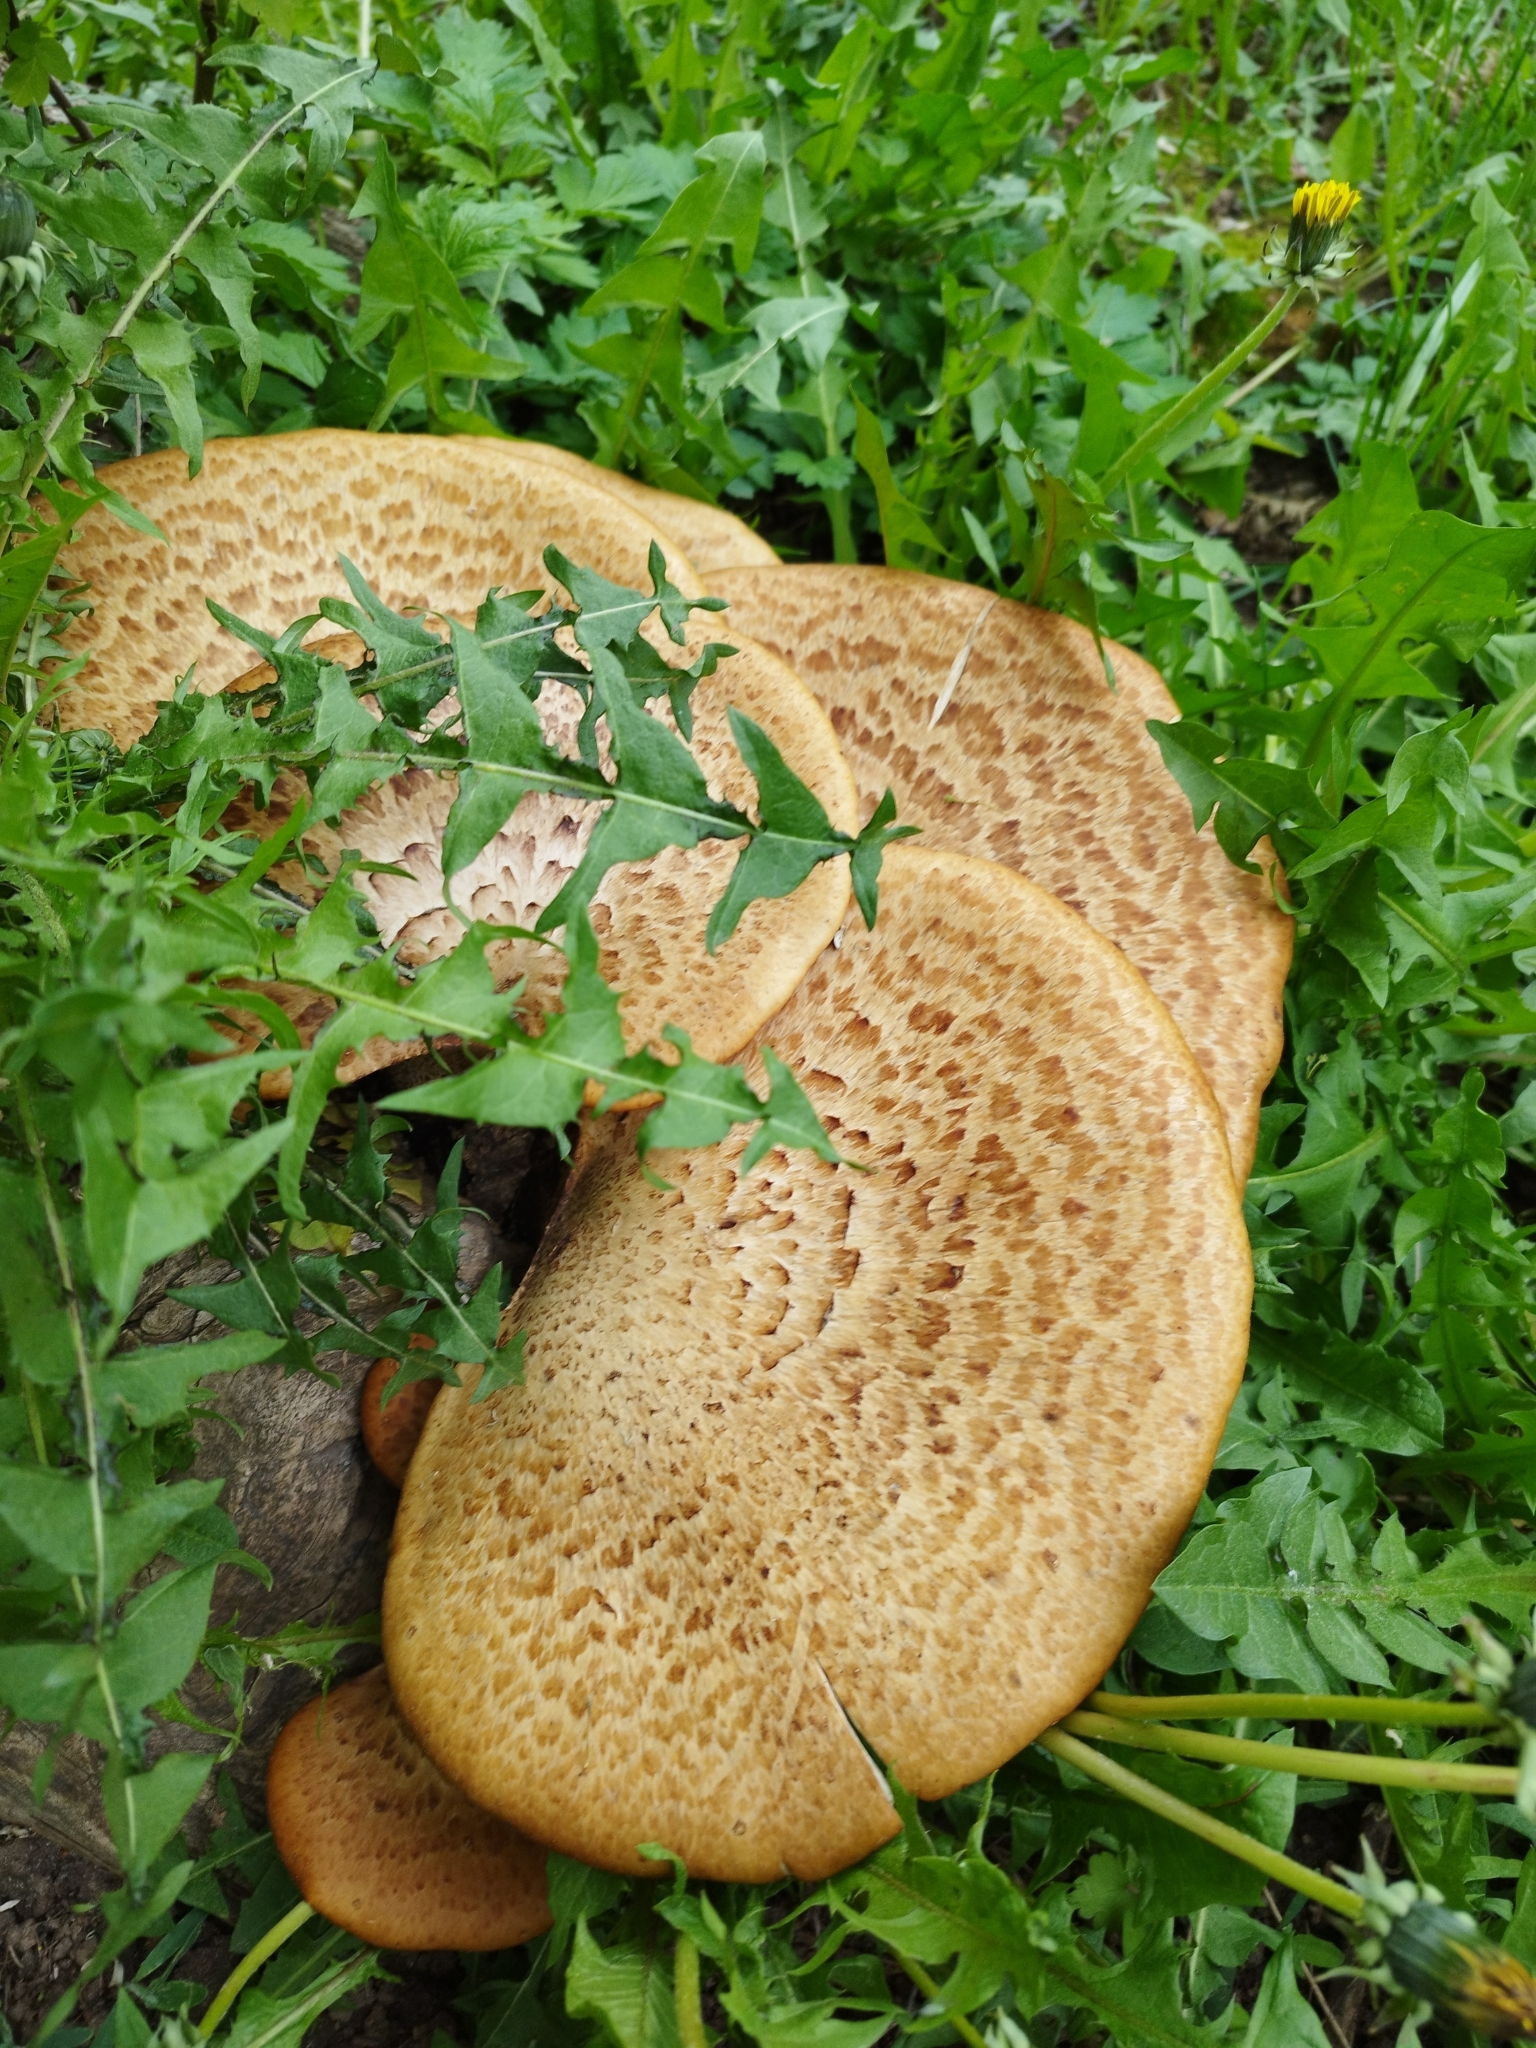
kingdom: Fungi
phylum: Basidiomycota
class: Agaricomycetes
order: Polyporales
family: Polyporaceae
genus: Cerioporus
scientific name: Cerioporus squamosus
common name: Dryad's saddle
